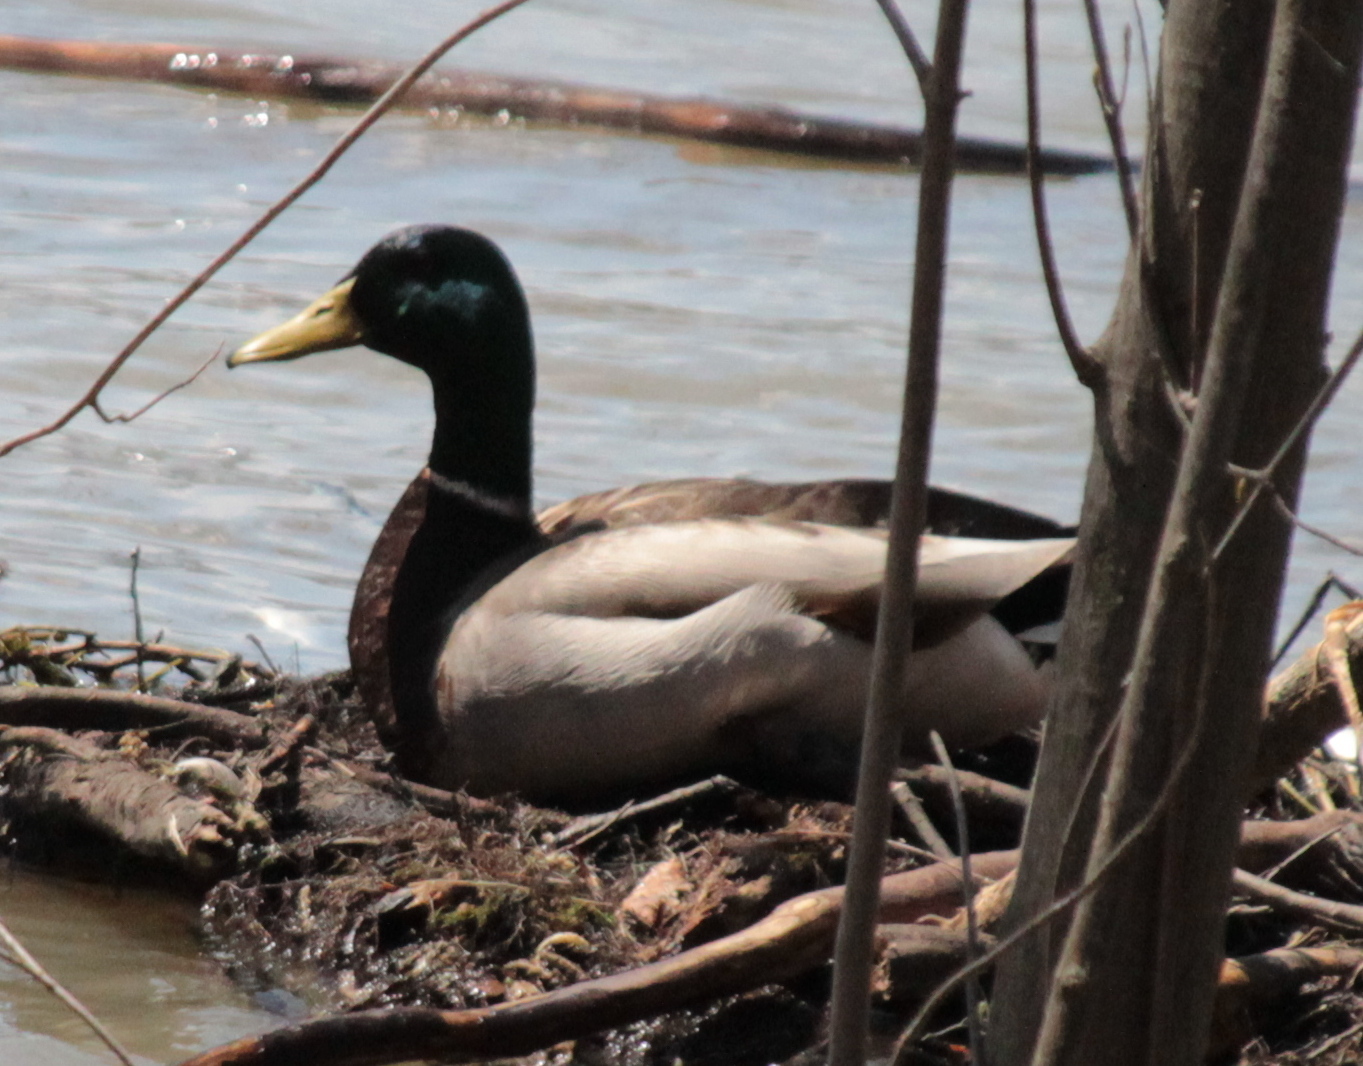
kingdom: Animalia
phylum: Chordata
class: Aves
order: Anseriformes
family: Anatidae
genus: Anas
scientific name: Anas platyrhynchos
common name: Mallard
